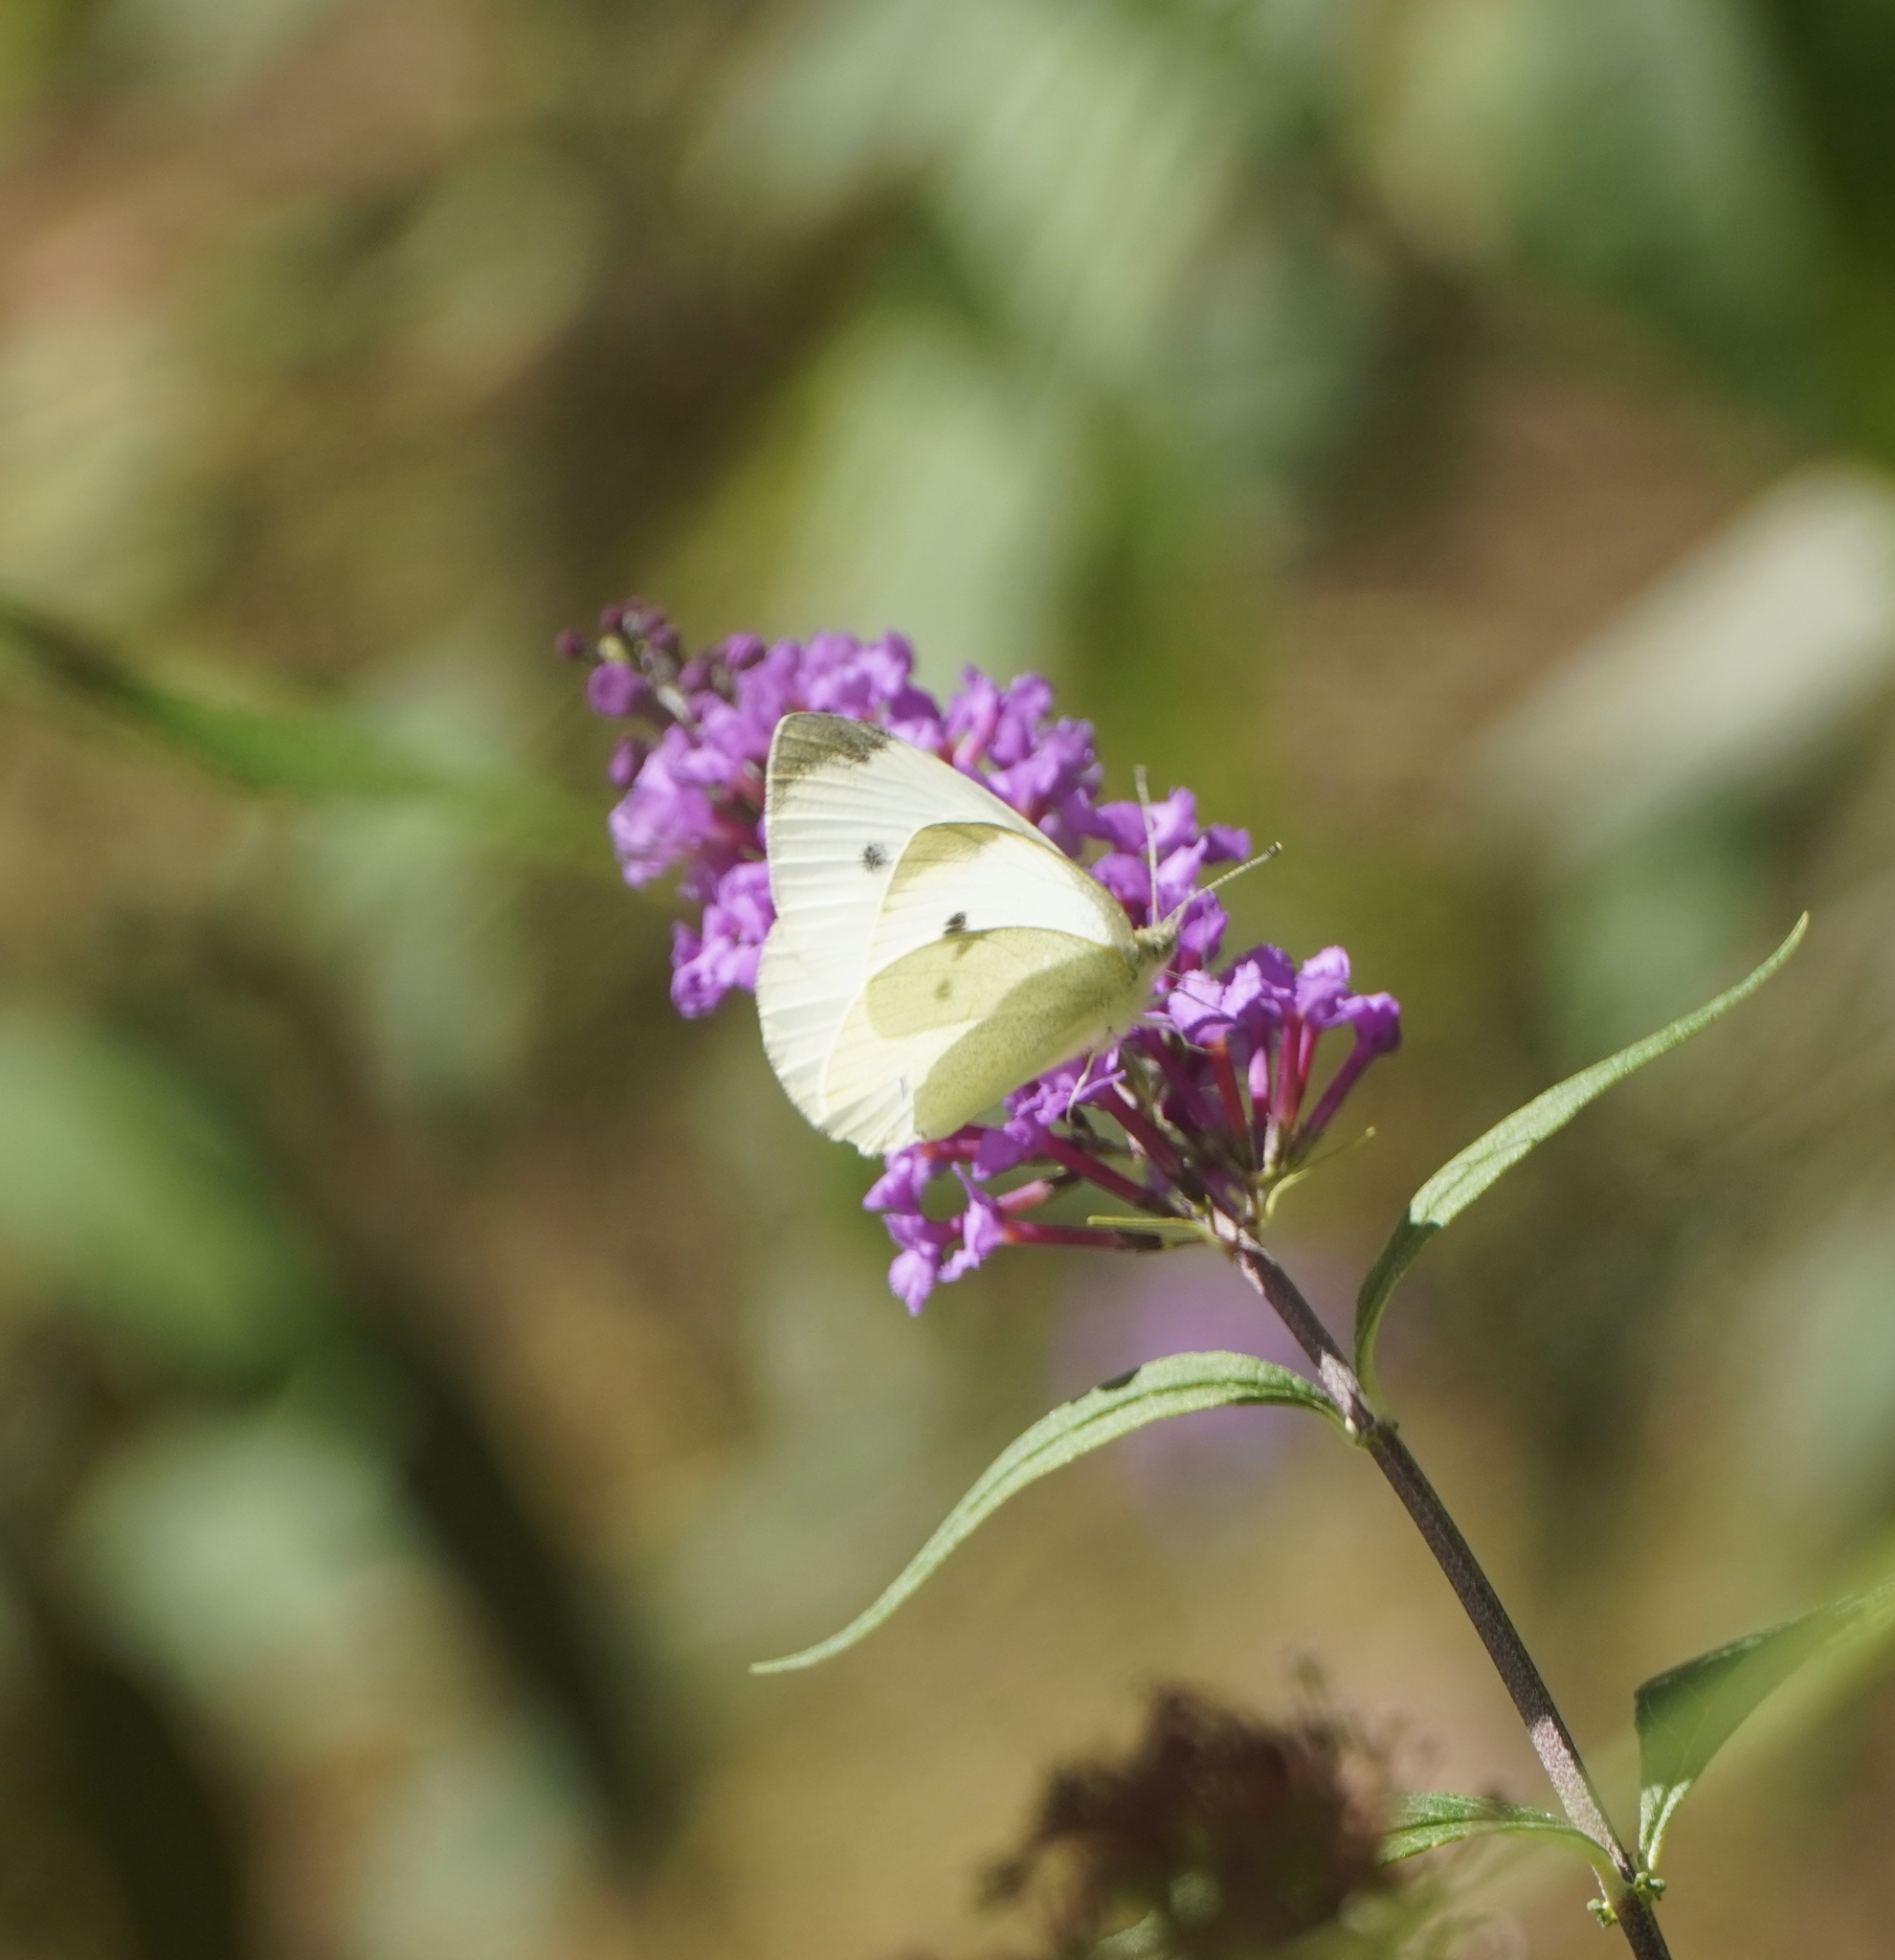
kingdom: Animalia
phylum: Arthropoda
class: Insecta
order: Lepidoptera
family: Pieridae
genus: Pieris
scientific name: Pieris rapae
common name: Small white
